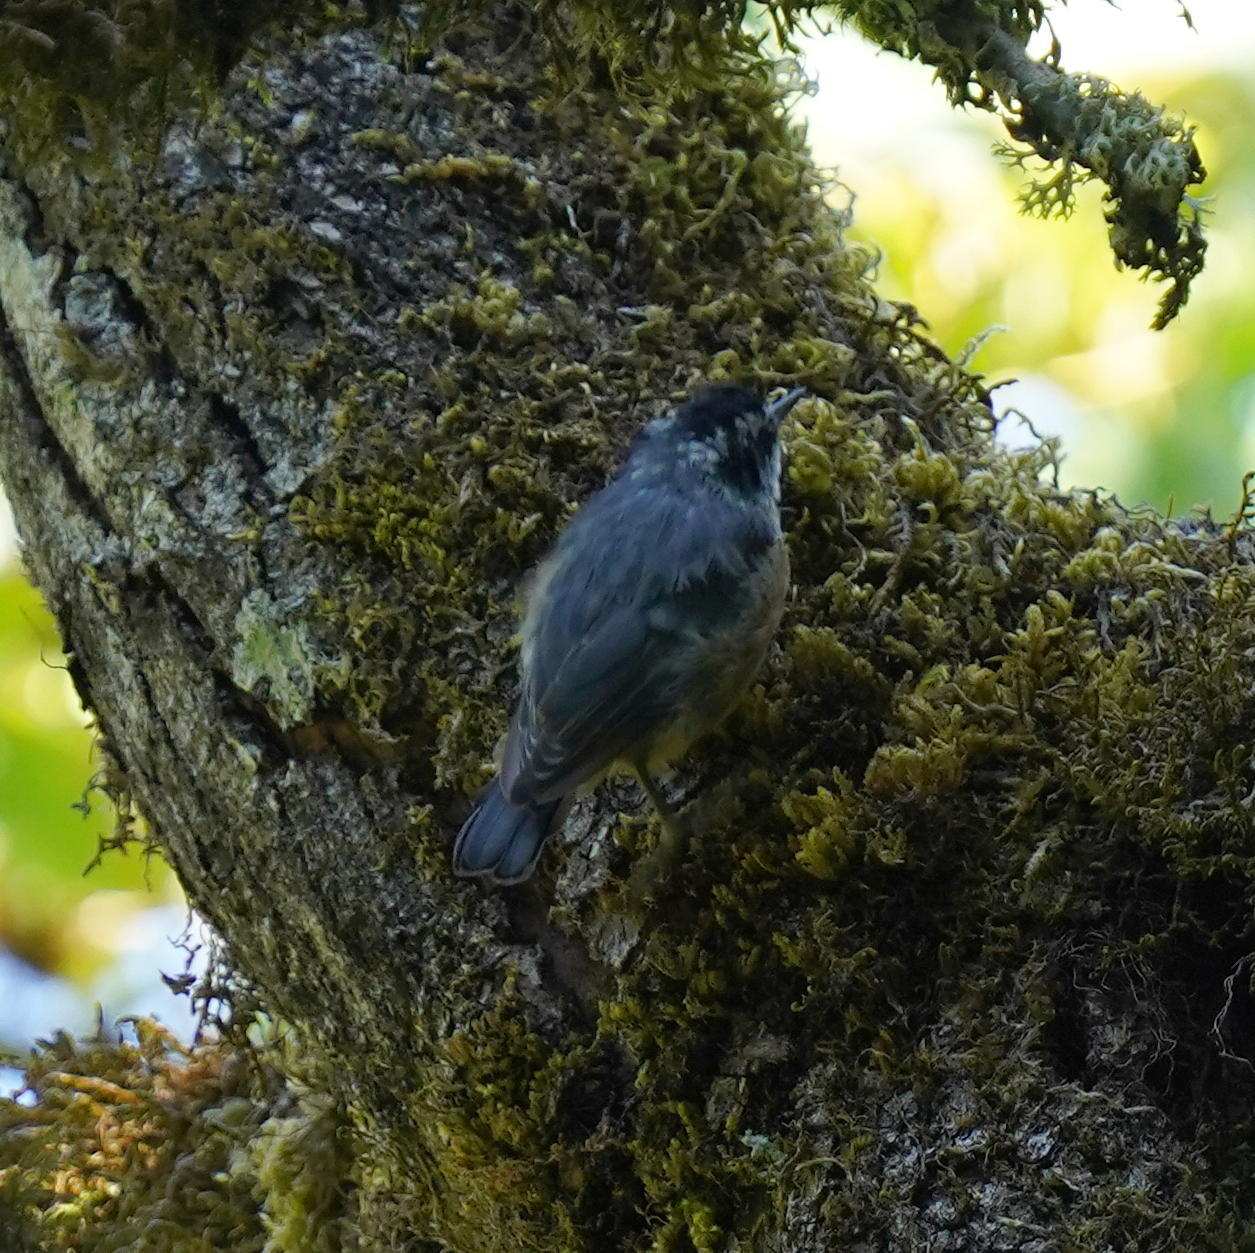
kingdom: Animalia
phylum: Chordata
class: Aves
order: Passeriformes
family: Sittidae
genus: Sitta
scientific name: Sitta canadensis
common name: Red-breasted nuthatch
